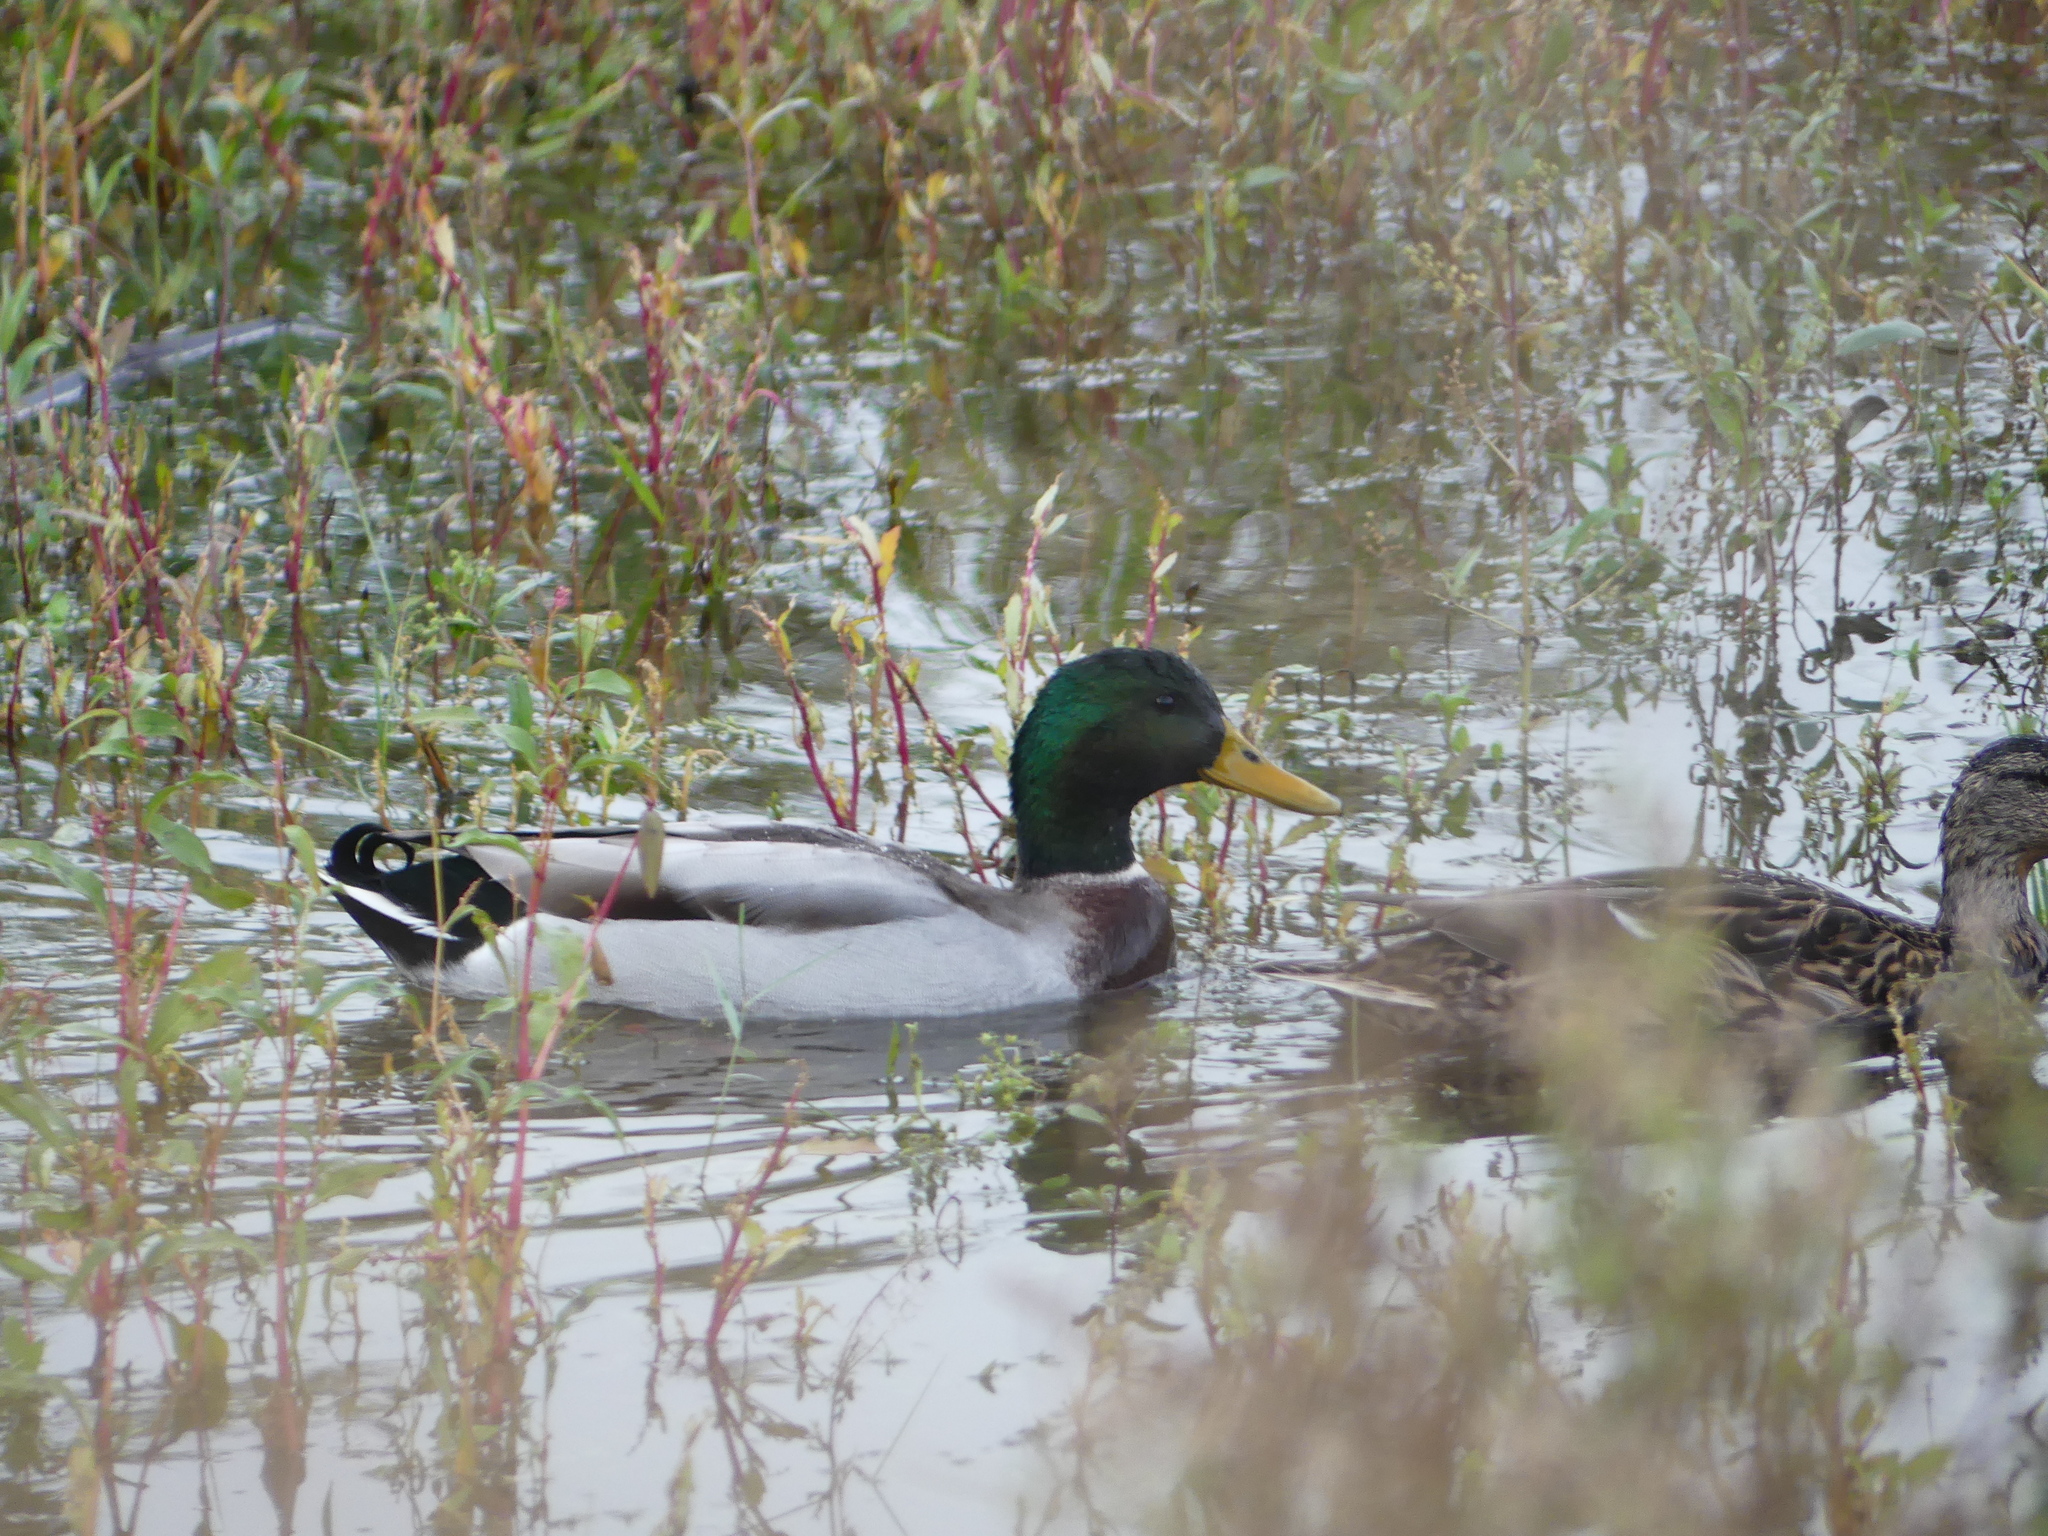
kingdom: Animalia
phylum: Chordata
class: Aves
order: Anseriformes
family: Anatidae
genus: Anas
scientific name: Anas platyrhynchos
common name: Mallard
